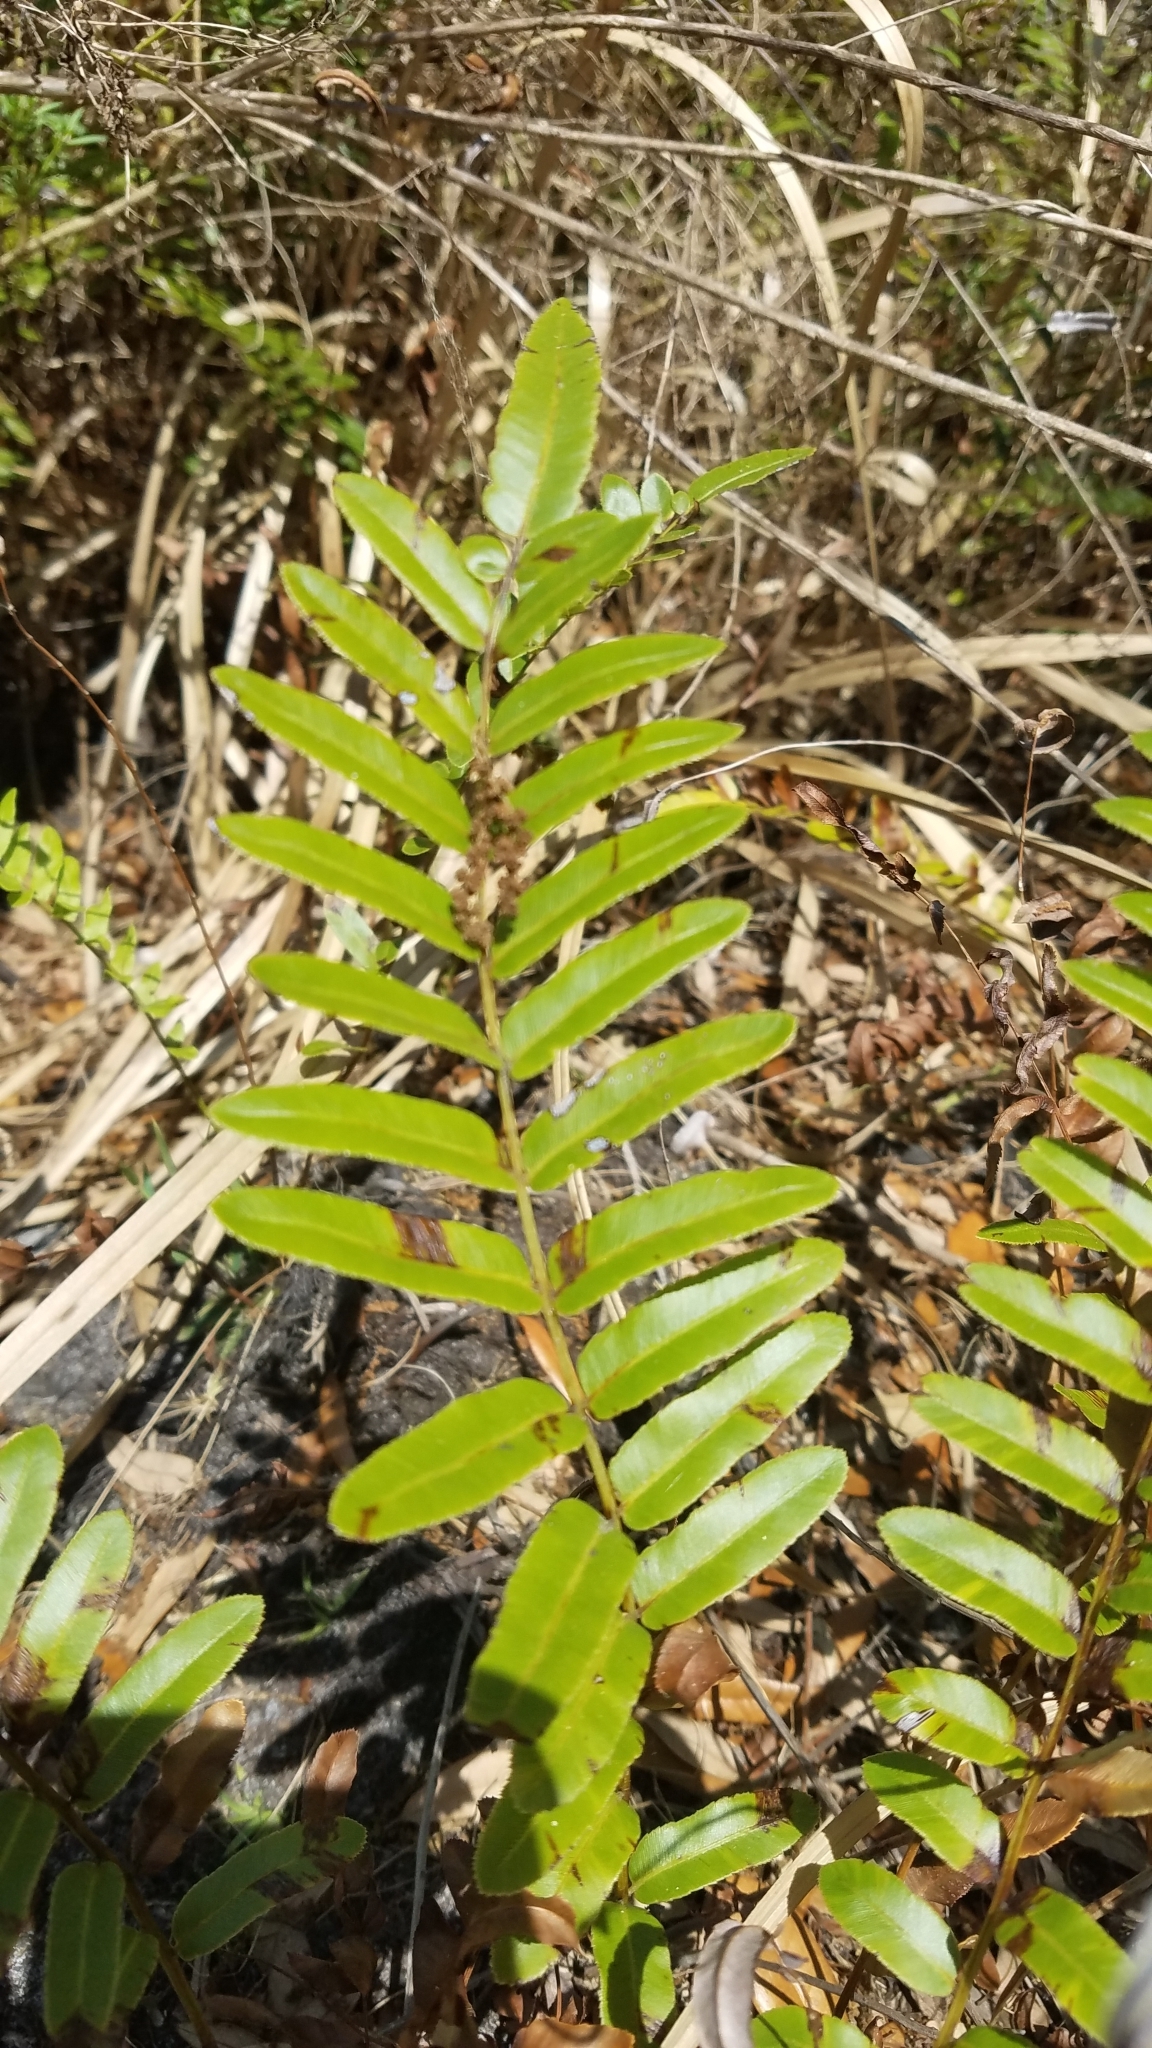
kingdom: Plantae
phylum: Tracheophyta
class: Polypodiopsida
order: Polypodiales
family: Blechnaceae
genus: Telmatoblechnum
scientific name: Telmatoblechnum serrulatum
